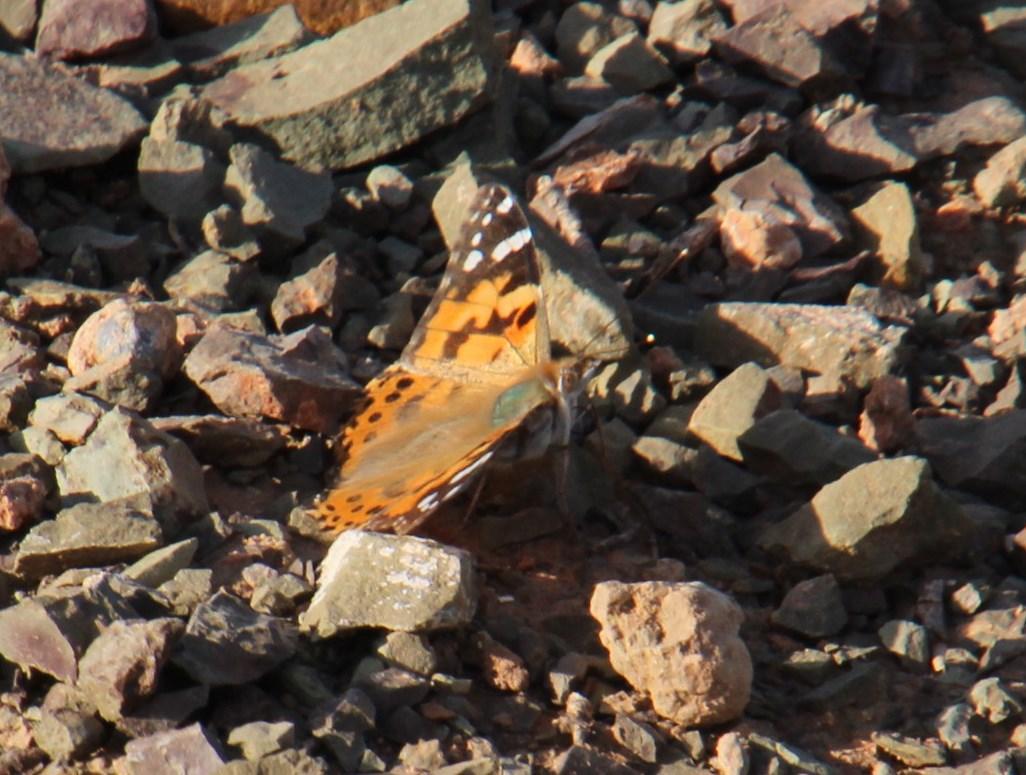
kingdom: Animalia
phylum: Arthropoda
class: Insecta
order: Lepidoptera
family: Nymphalidae
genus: Vanessa
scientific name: Vanessa cardui
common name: Painted lady
